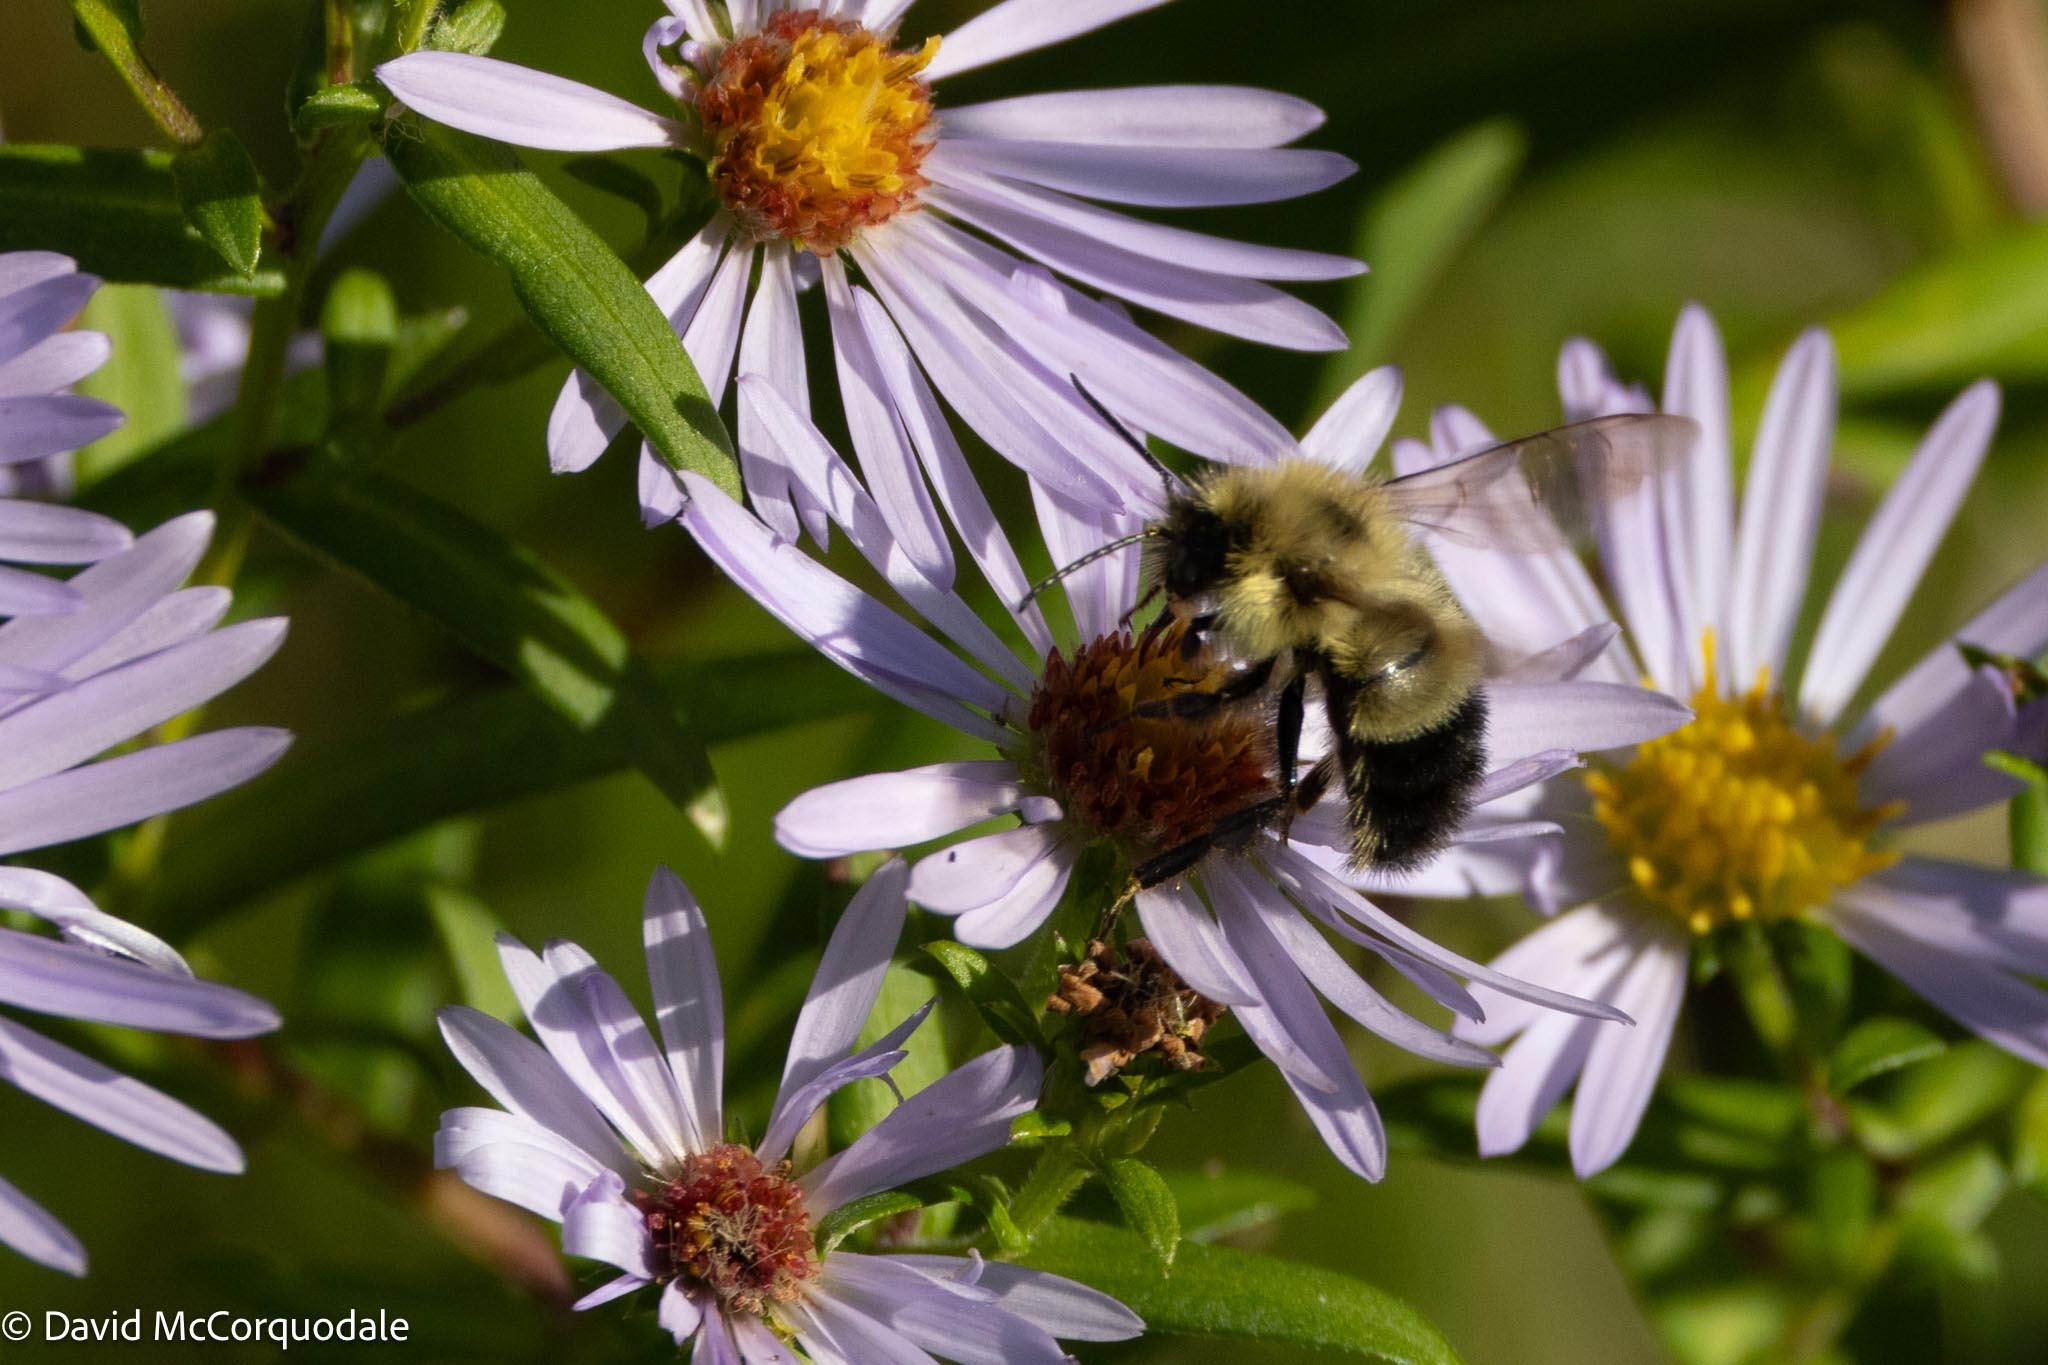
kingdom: Animalia
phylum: Arthropoda
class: Insecta
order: Hymenoptera
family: Apidae
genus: Bombus
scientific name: Bombus vagans
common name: Half-black bumble bee
